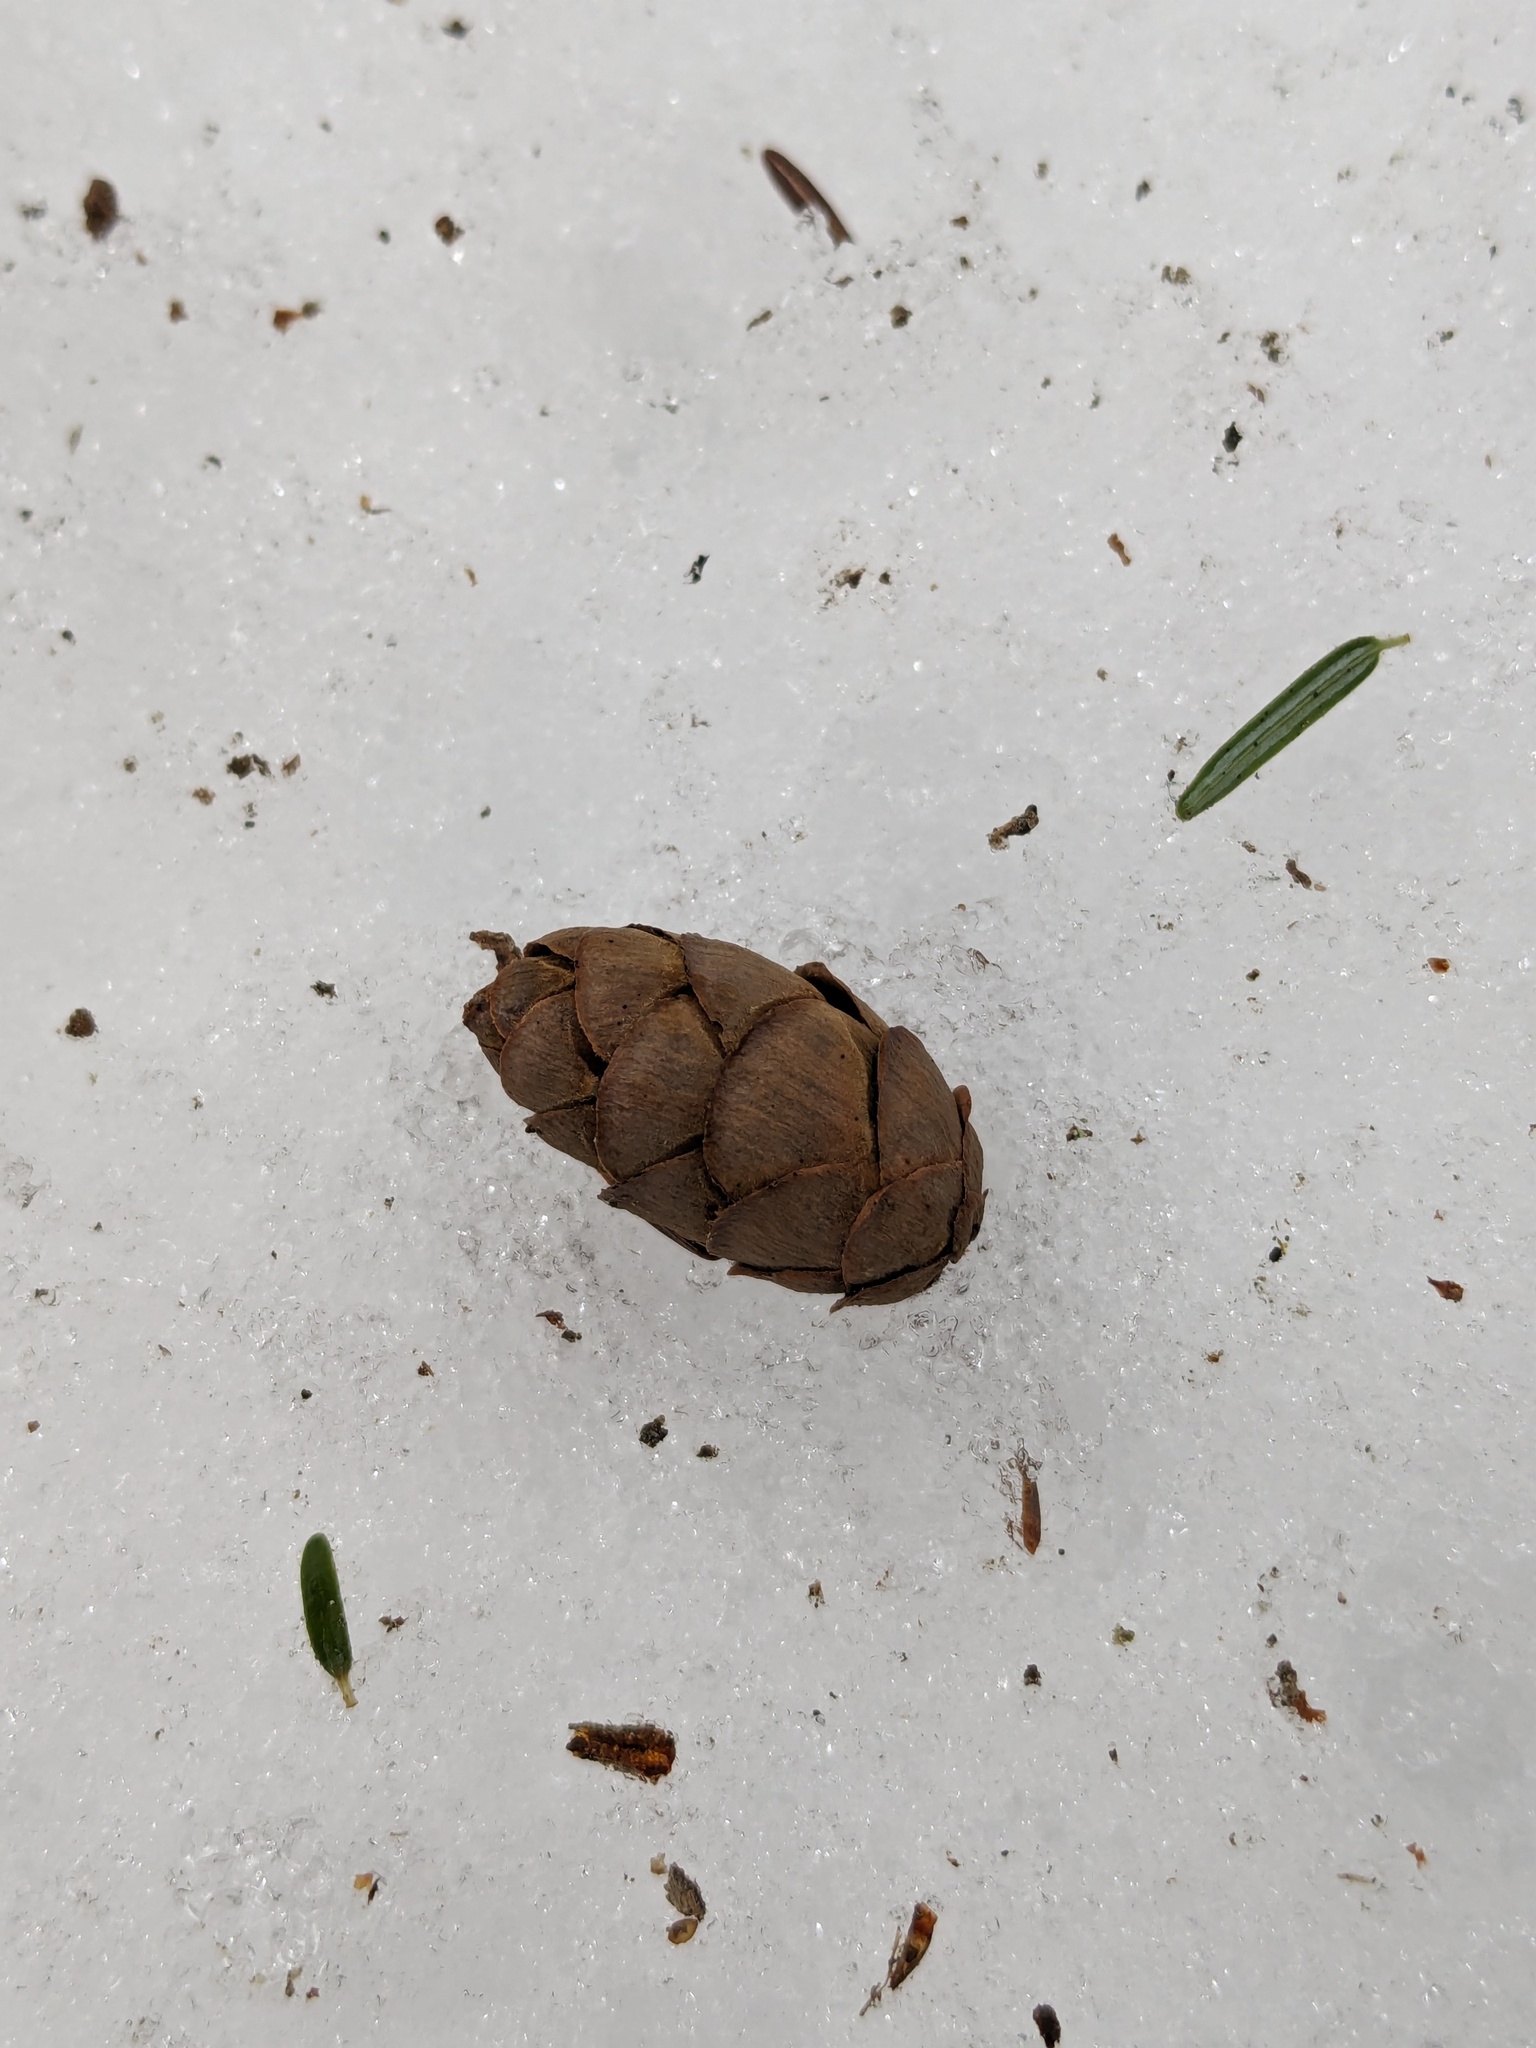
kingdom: Plantae
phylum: Tracheophyta
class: Pinopsida
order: Pinales
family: Pinaceae
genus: Tsuga
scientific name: Tsuga canadensis
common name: Eastern hemlock
